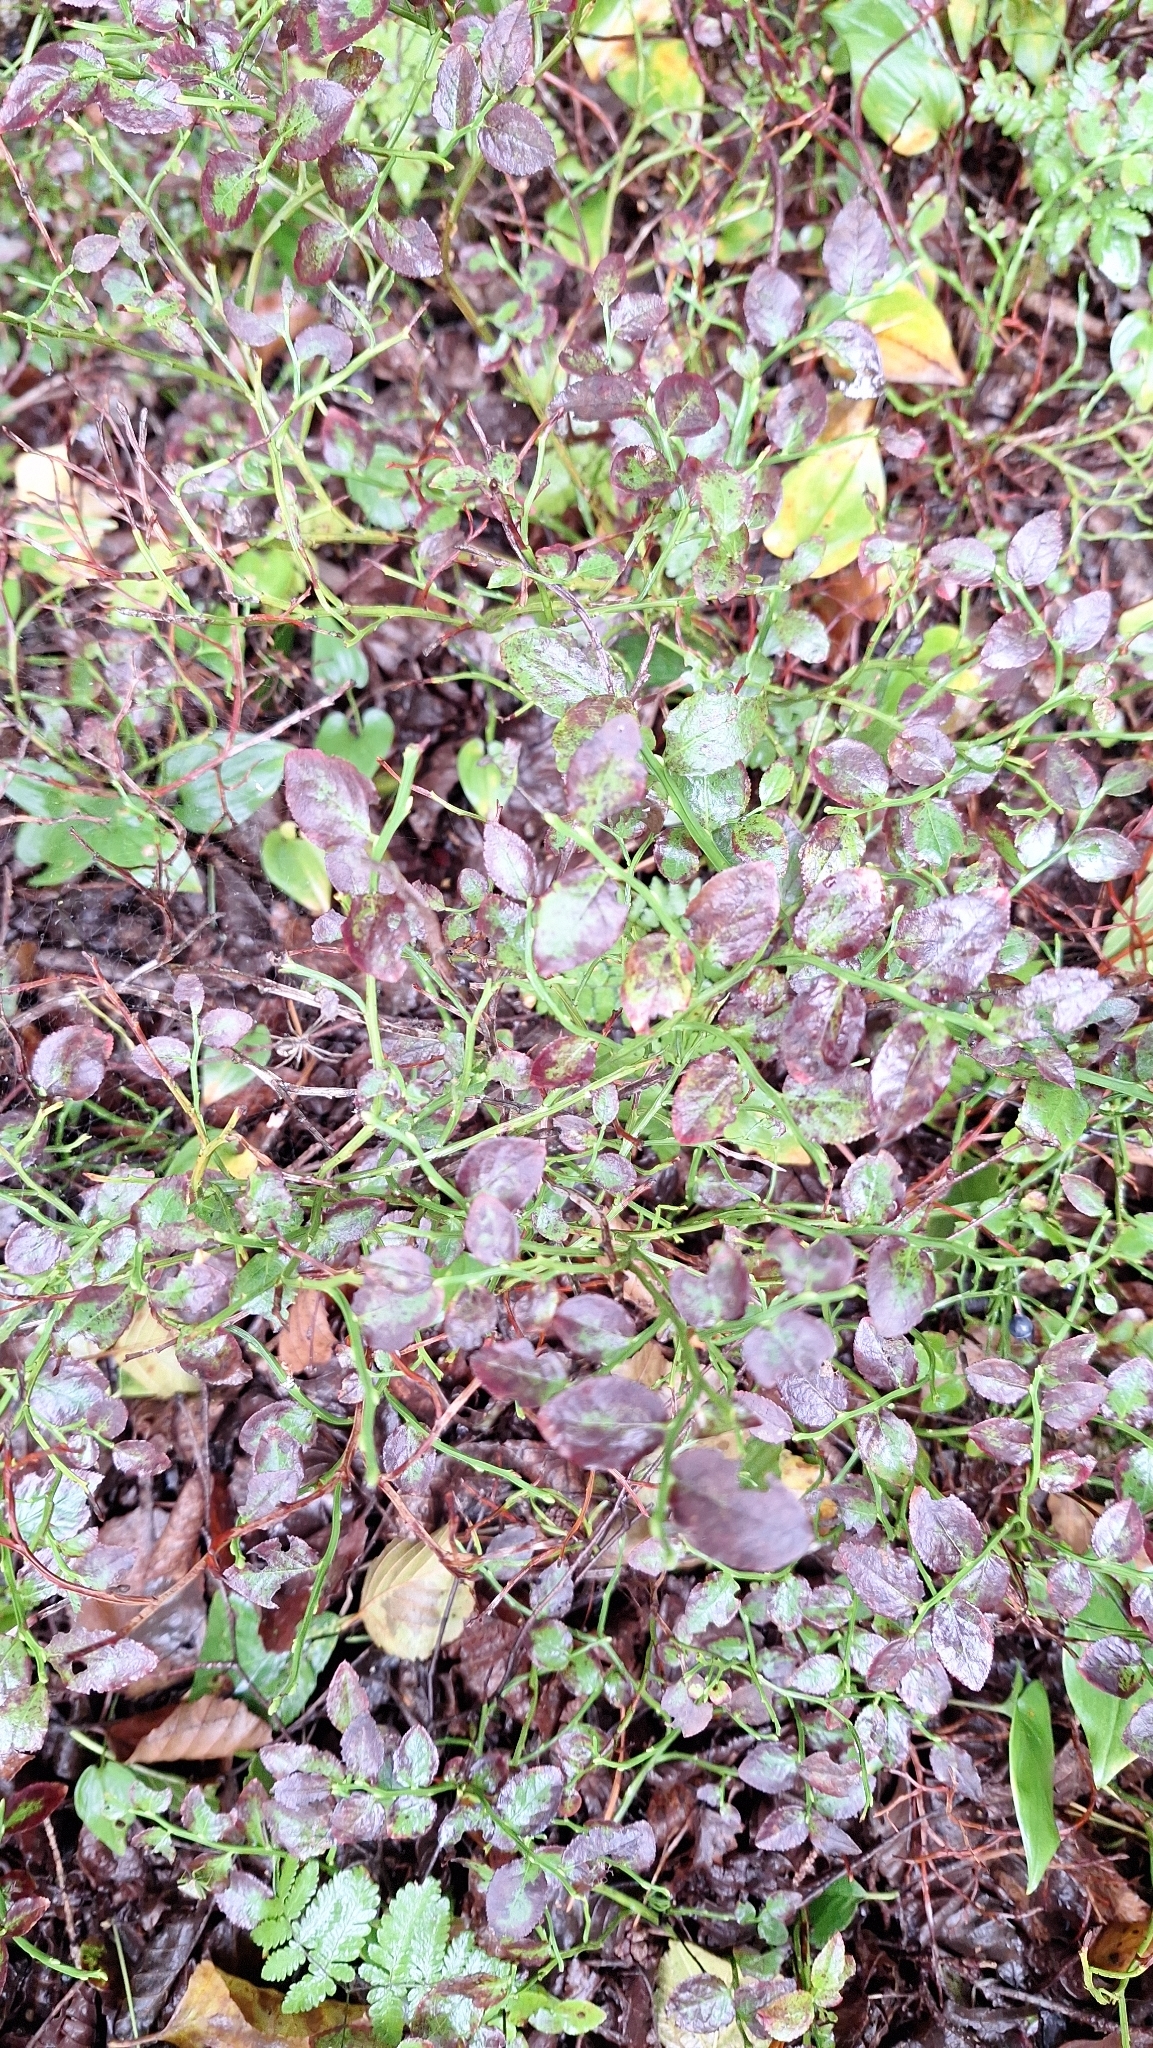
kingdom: Plantae
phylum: Tracheophyta
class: Magnoliopsida
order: Ericales
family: Ericaceae
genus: Vaccinium
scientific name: Vaccinium myrtillus
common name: Bilberry
